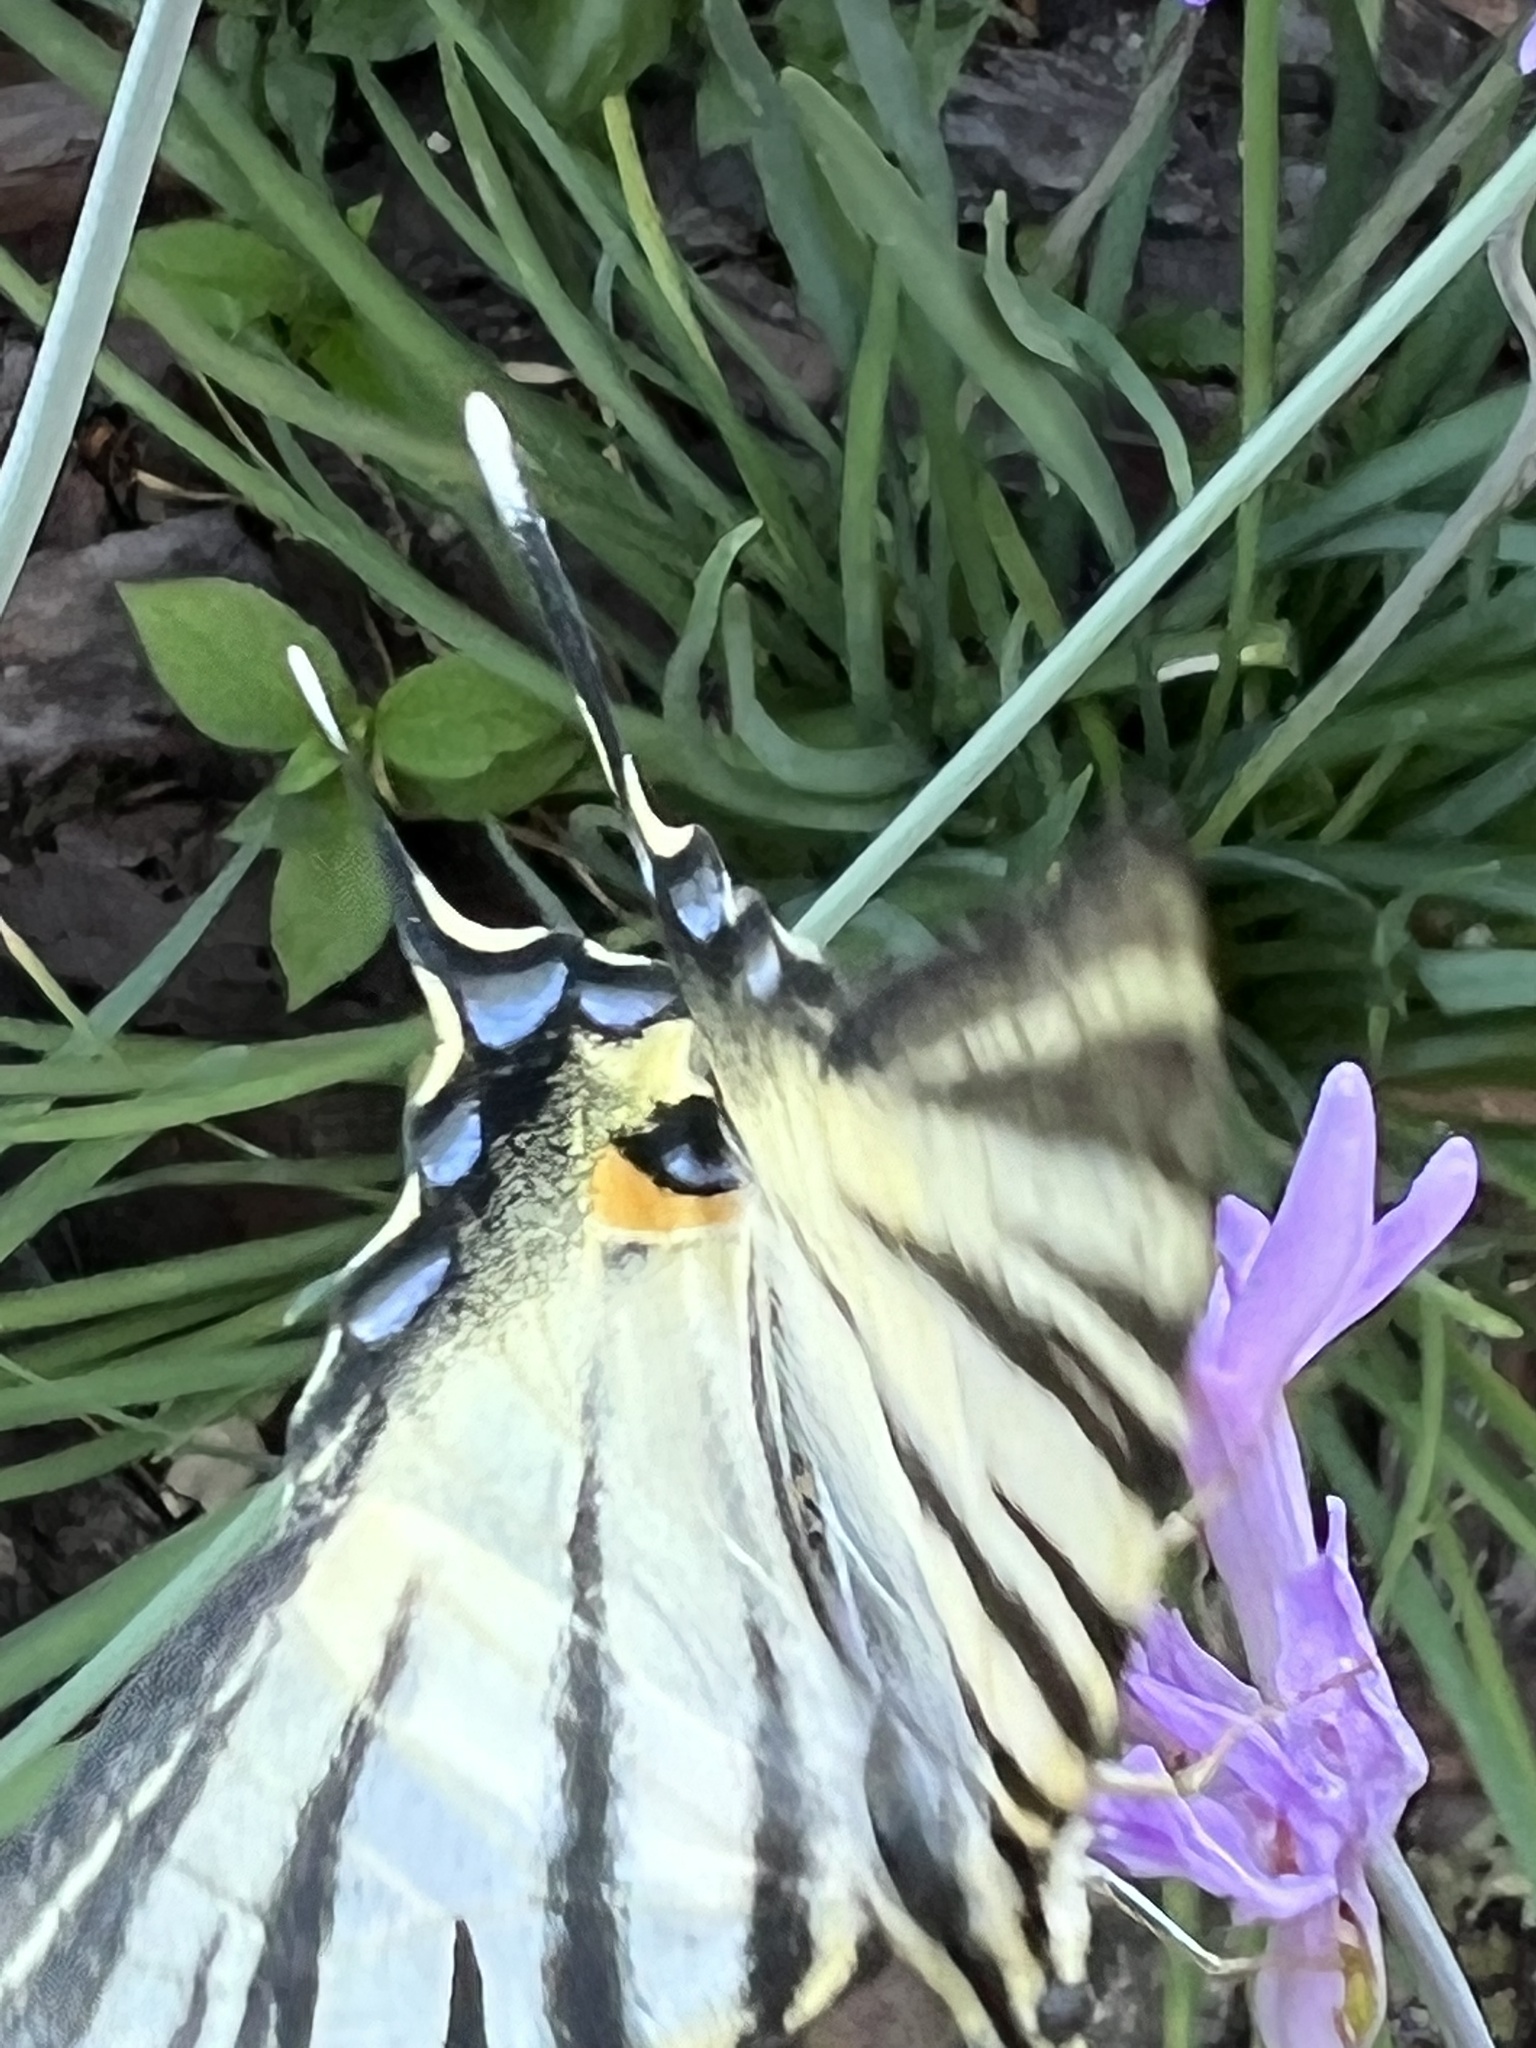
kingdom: Animalia
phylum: Arthropoda
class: Insecta
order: Lepidoptera
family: Papilionidae
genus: Iphiclides
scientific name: Iphiclides podalirius
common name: Scarce swallowtail
